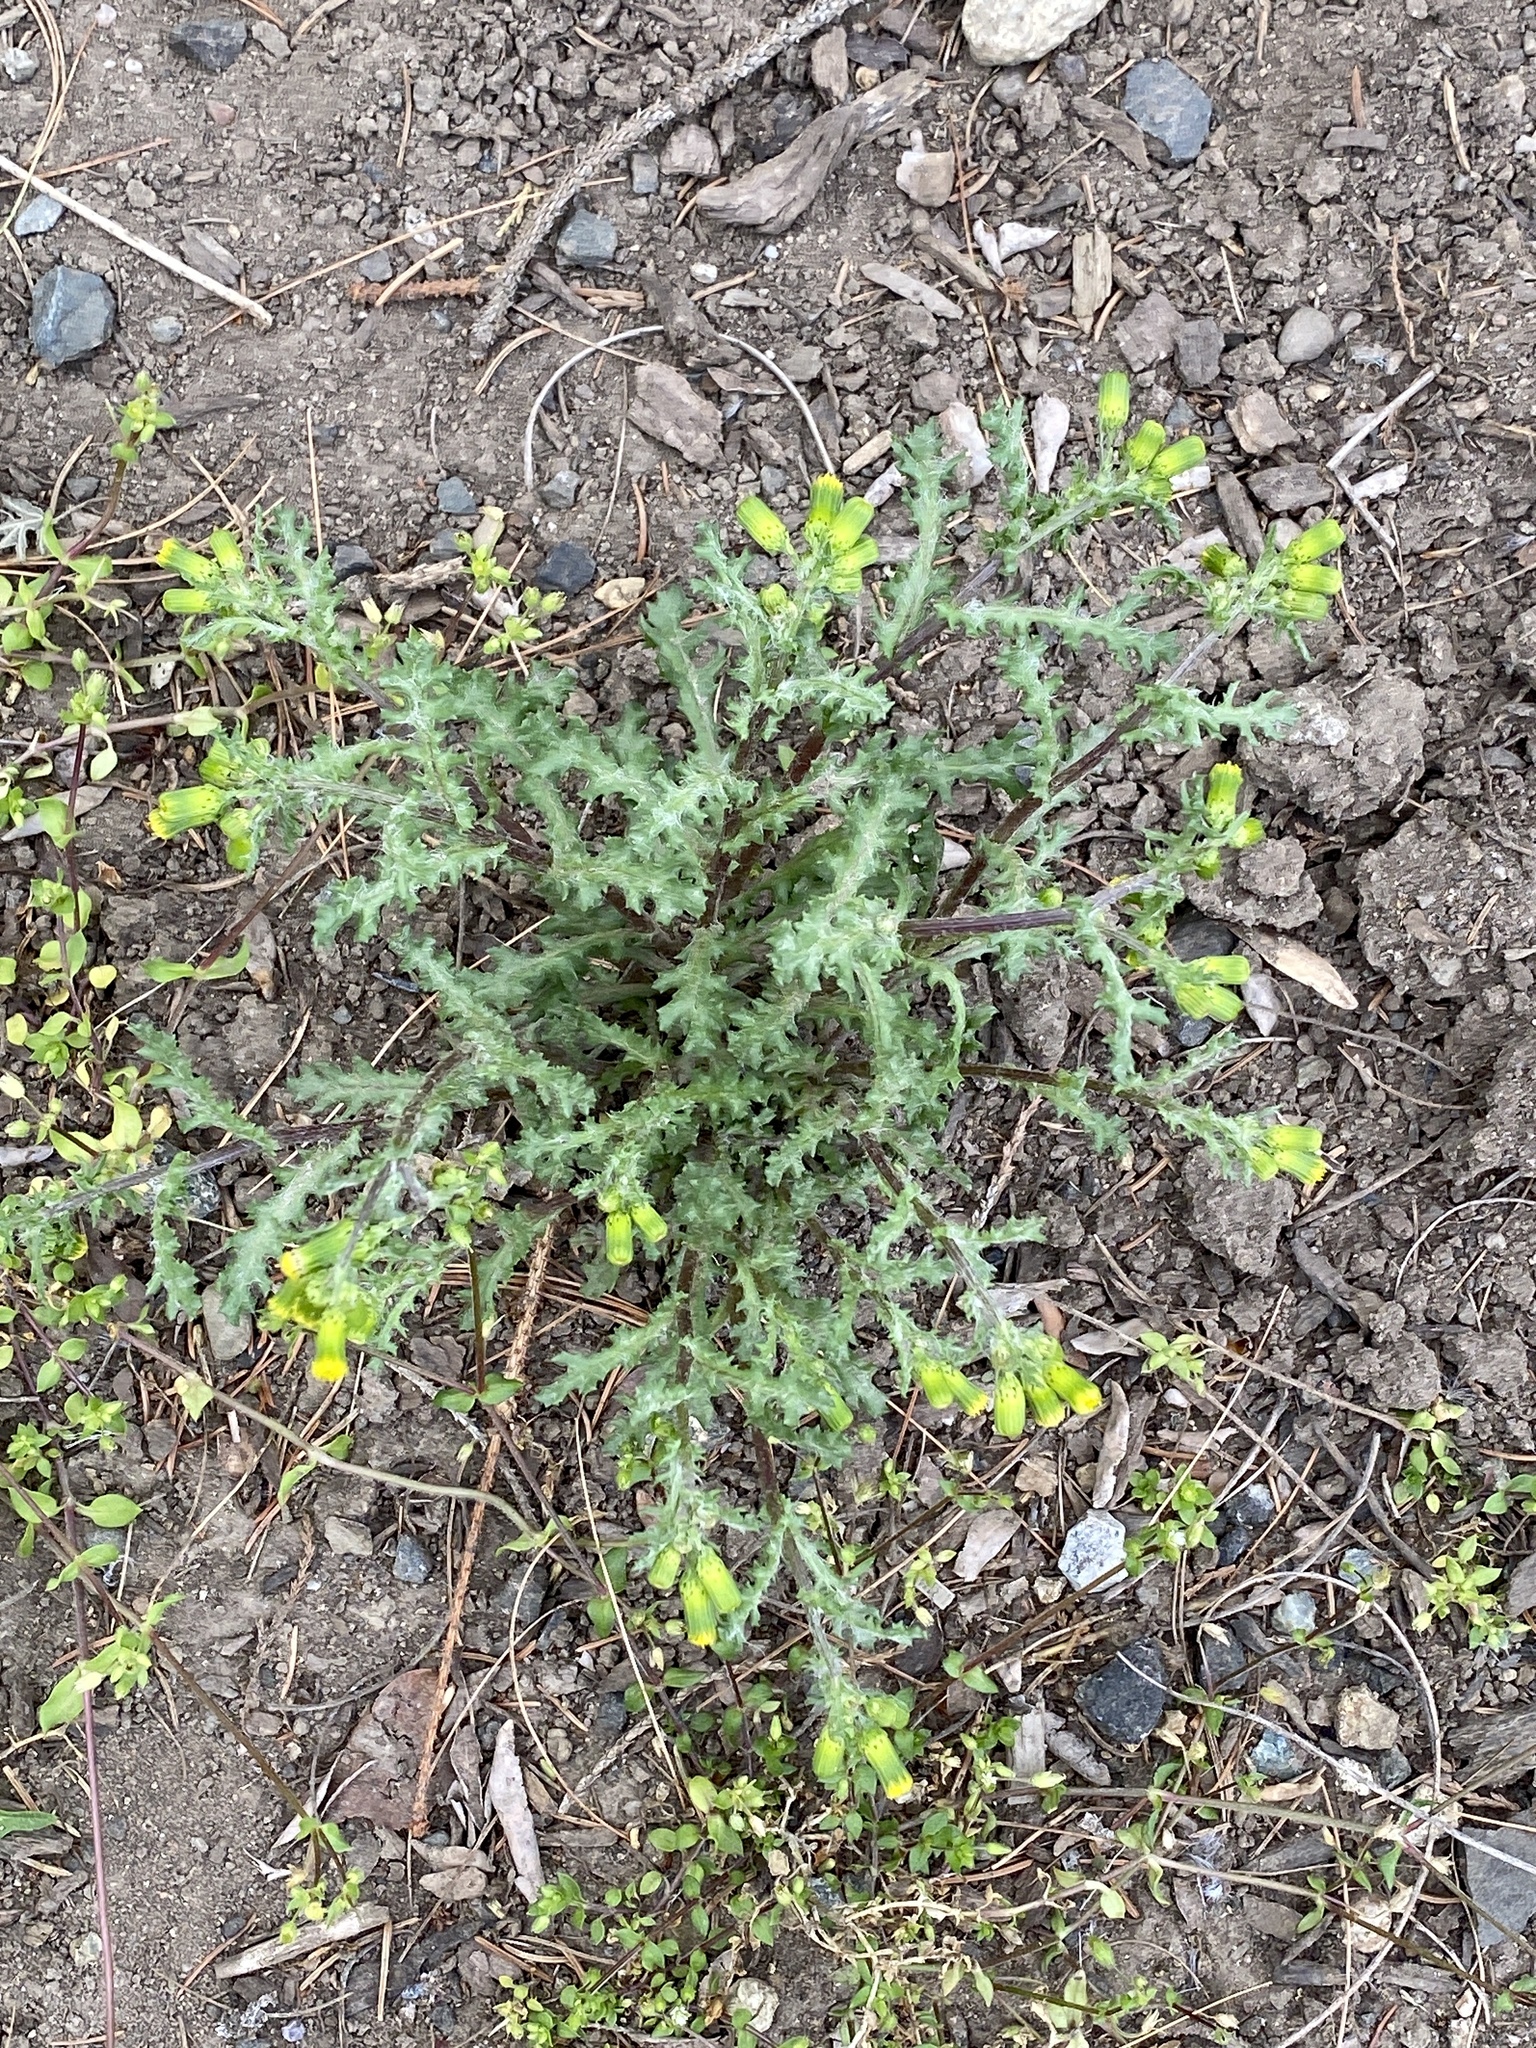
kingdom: Plantae
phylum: Tracheophyta
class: Magnoliopsida
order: Asterales
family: Asteraceae
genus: Senecio
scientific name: Senecio vulgaris
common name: Old-man-in-the-spring
